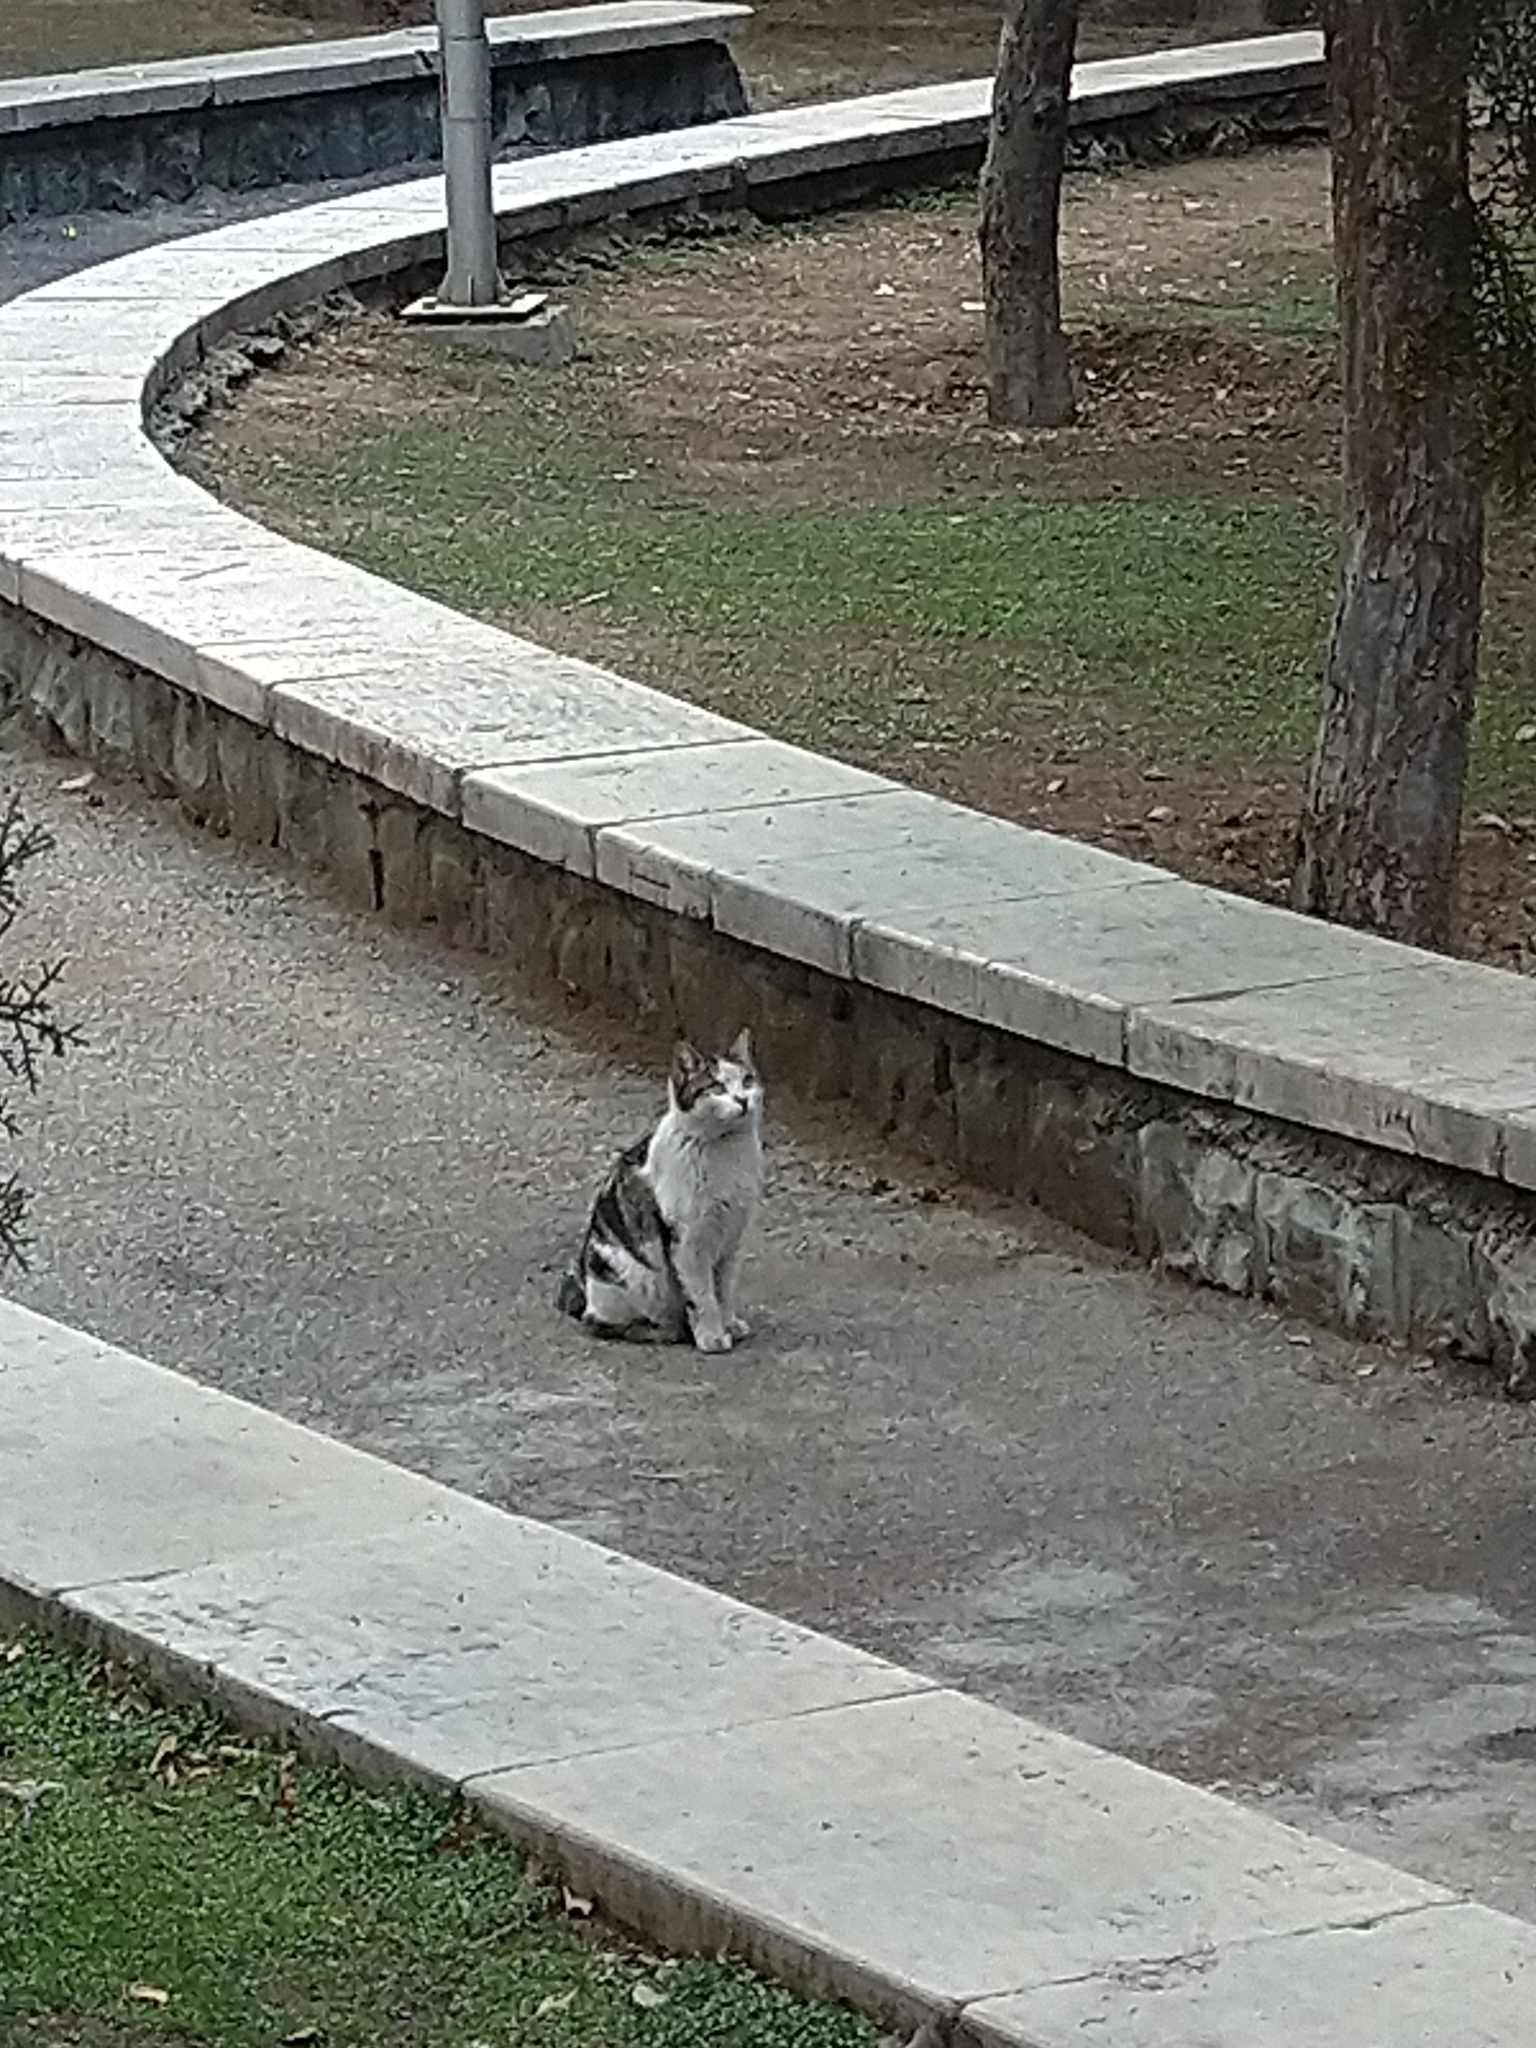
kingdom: Animalia
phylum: Chordata
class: Mammalia
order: Carnivora
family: Felidae
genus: Felis
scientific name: Felis catus
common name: Domestic cat
